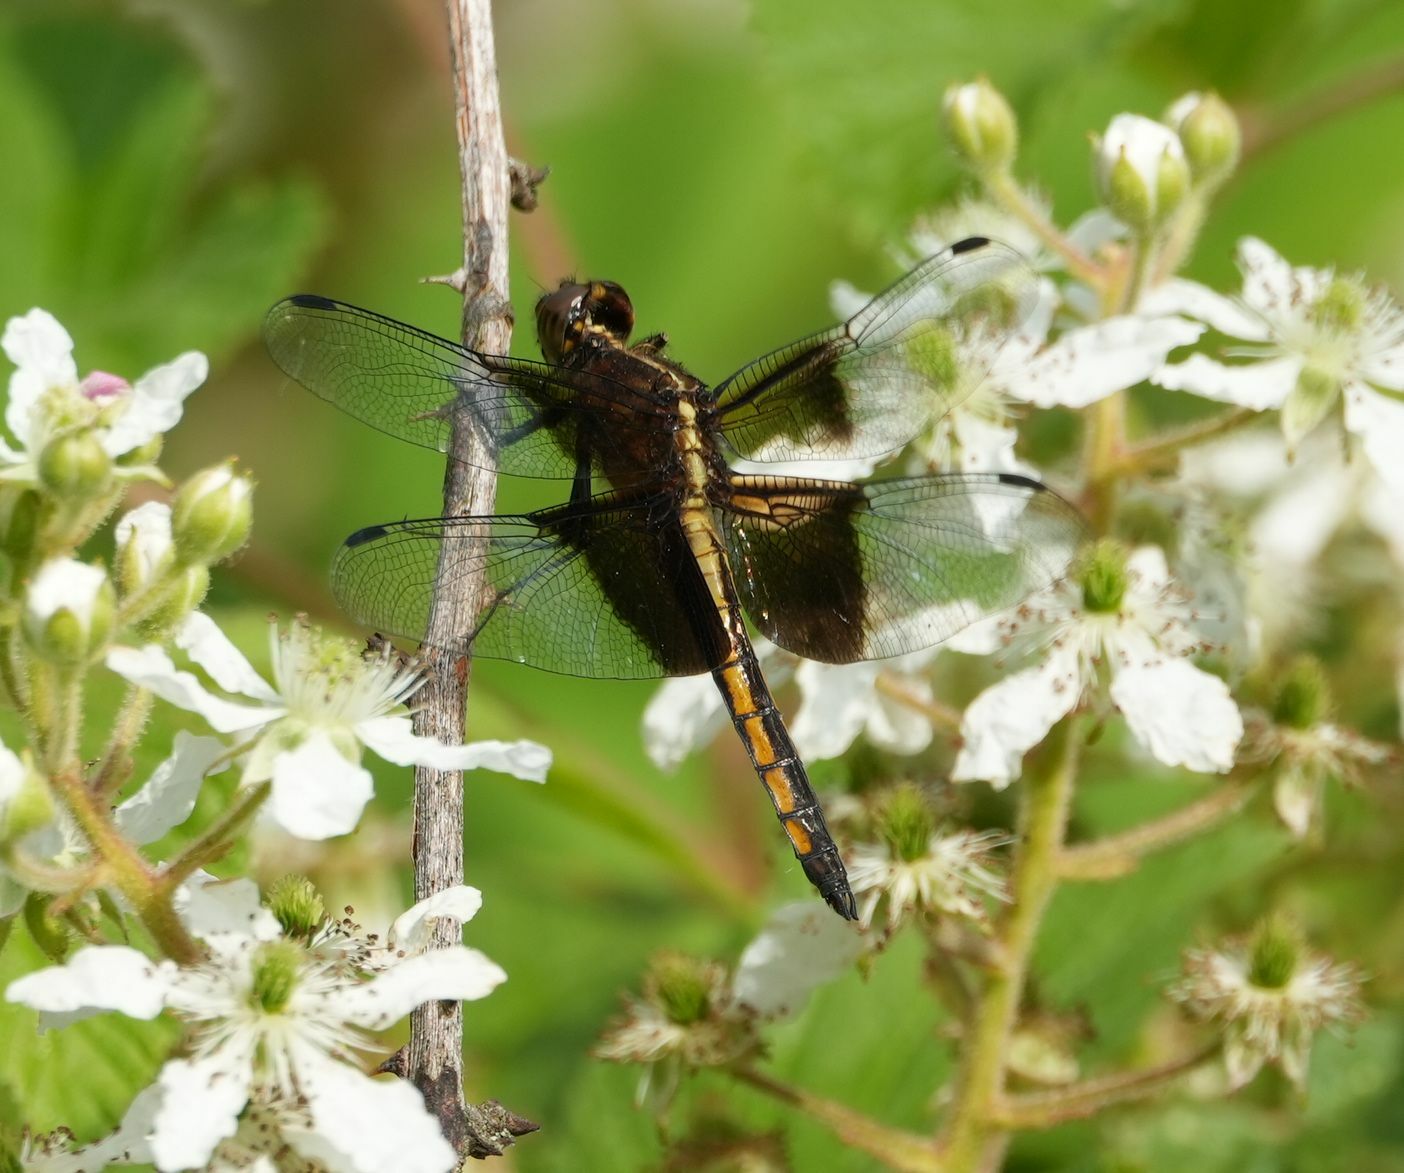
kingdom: Animalia
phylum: Arthropoda
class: Insecta
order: Odonata
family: Libellulidae
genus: Libellula
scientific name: Libellula luctuosa
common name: Widow skimmer
